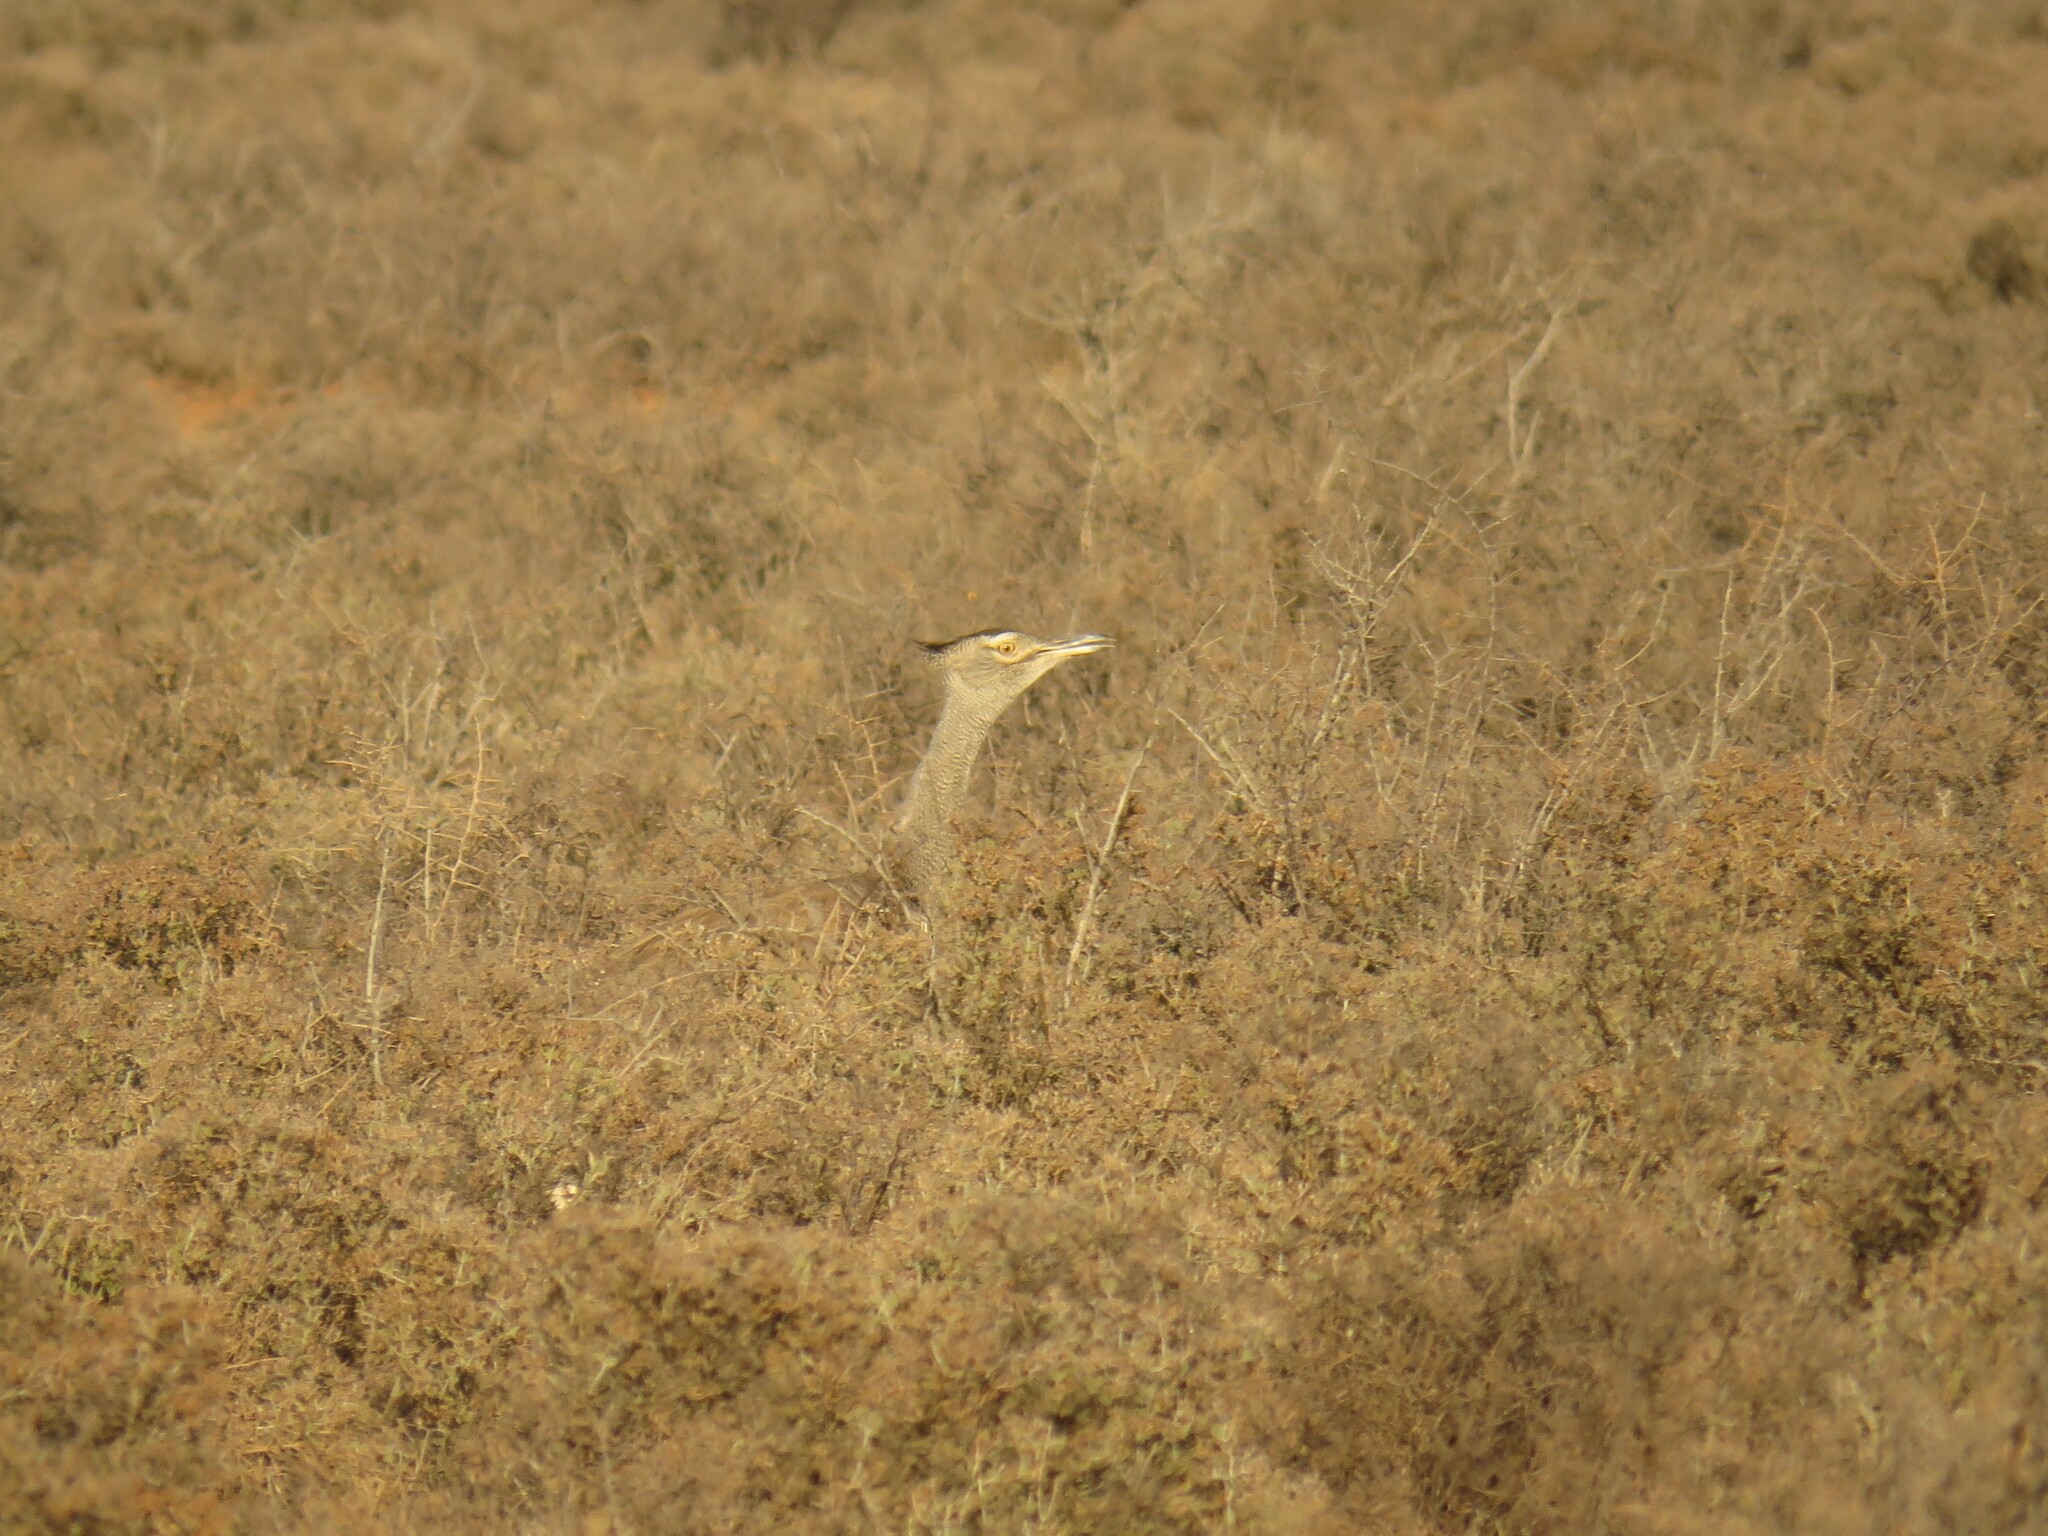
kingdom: Animalia
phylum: Chordata
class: Aves
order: Otidiformes
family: Otididae
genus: Ardeotis
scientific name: Ardeotis kori
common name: Kori bustard
